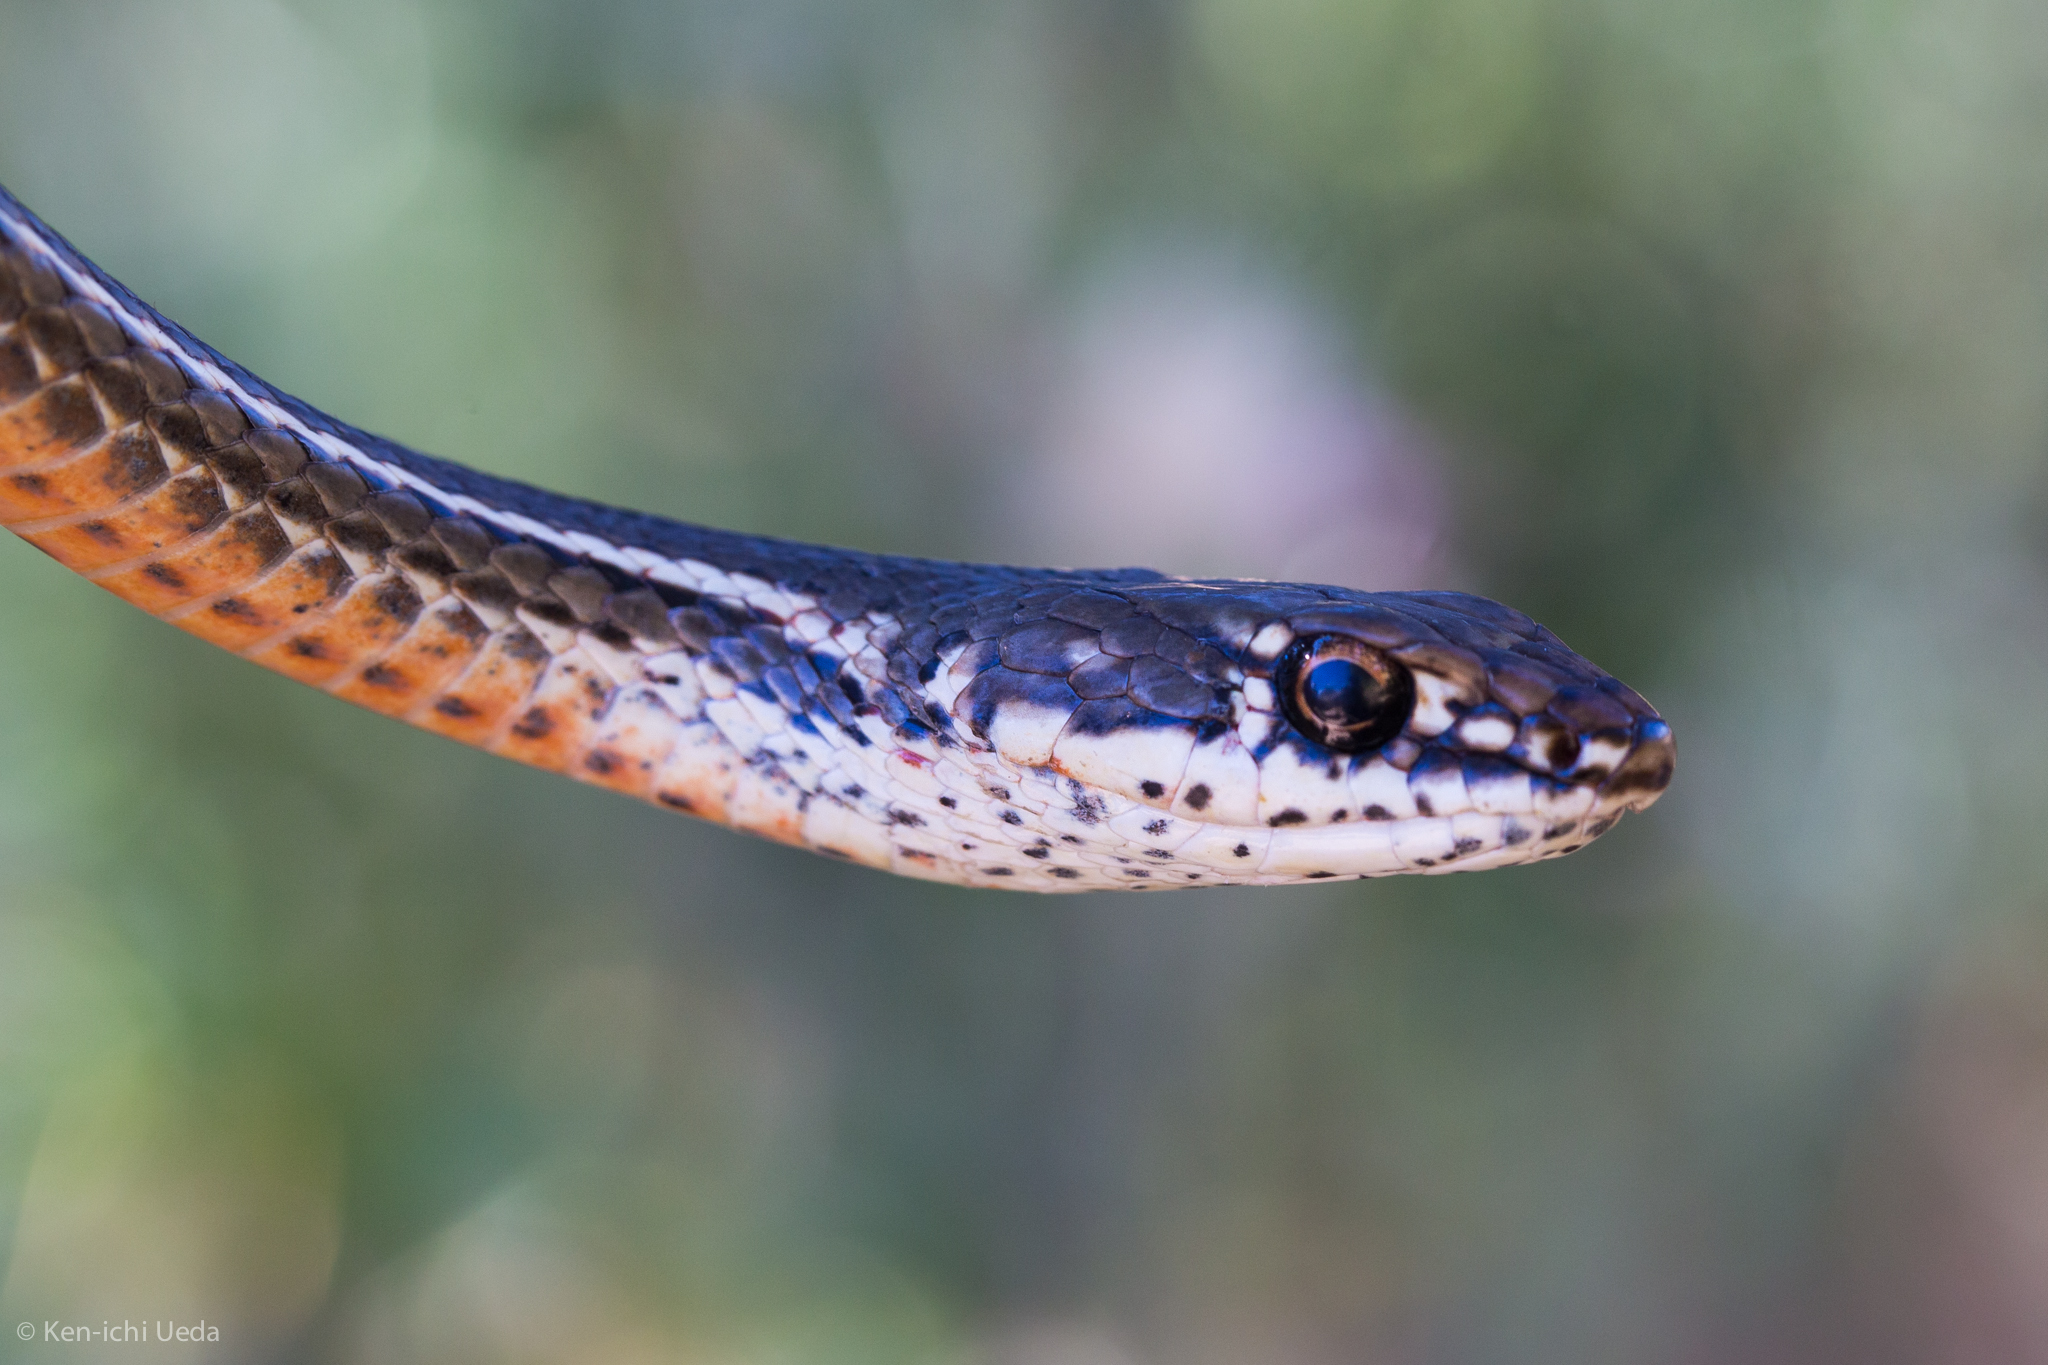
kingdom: Animalia
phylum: Chordata
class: Squamata
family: Colubridae
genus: Masticophis
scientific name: Masticophis lateralis
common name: Striped racer
